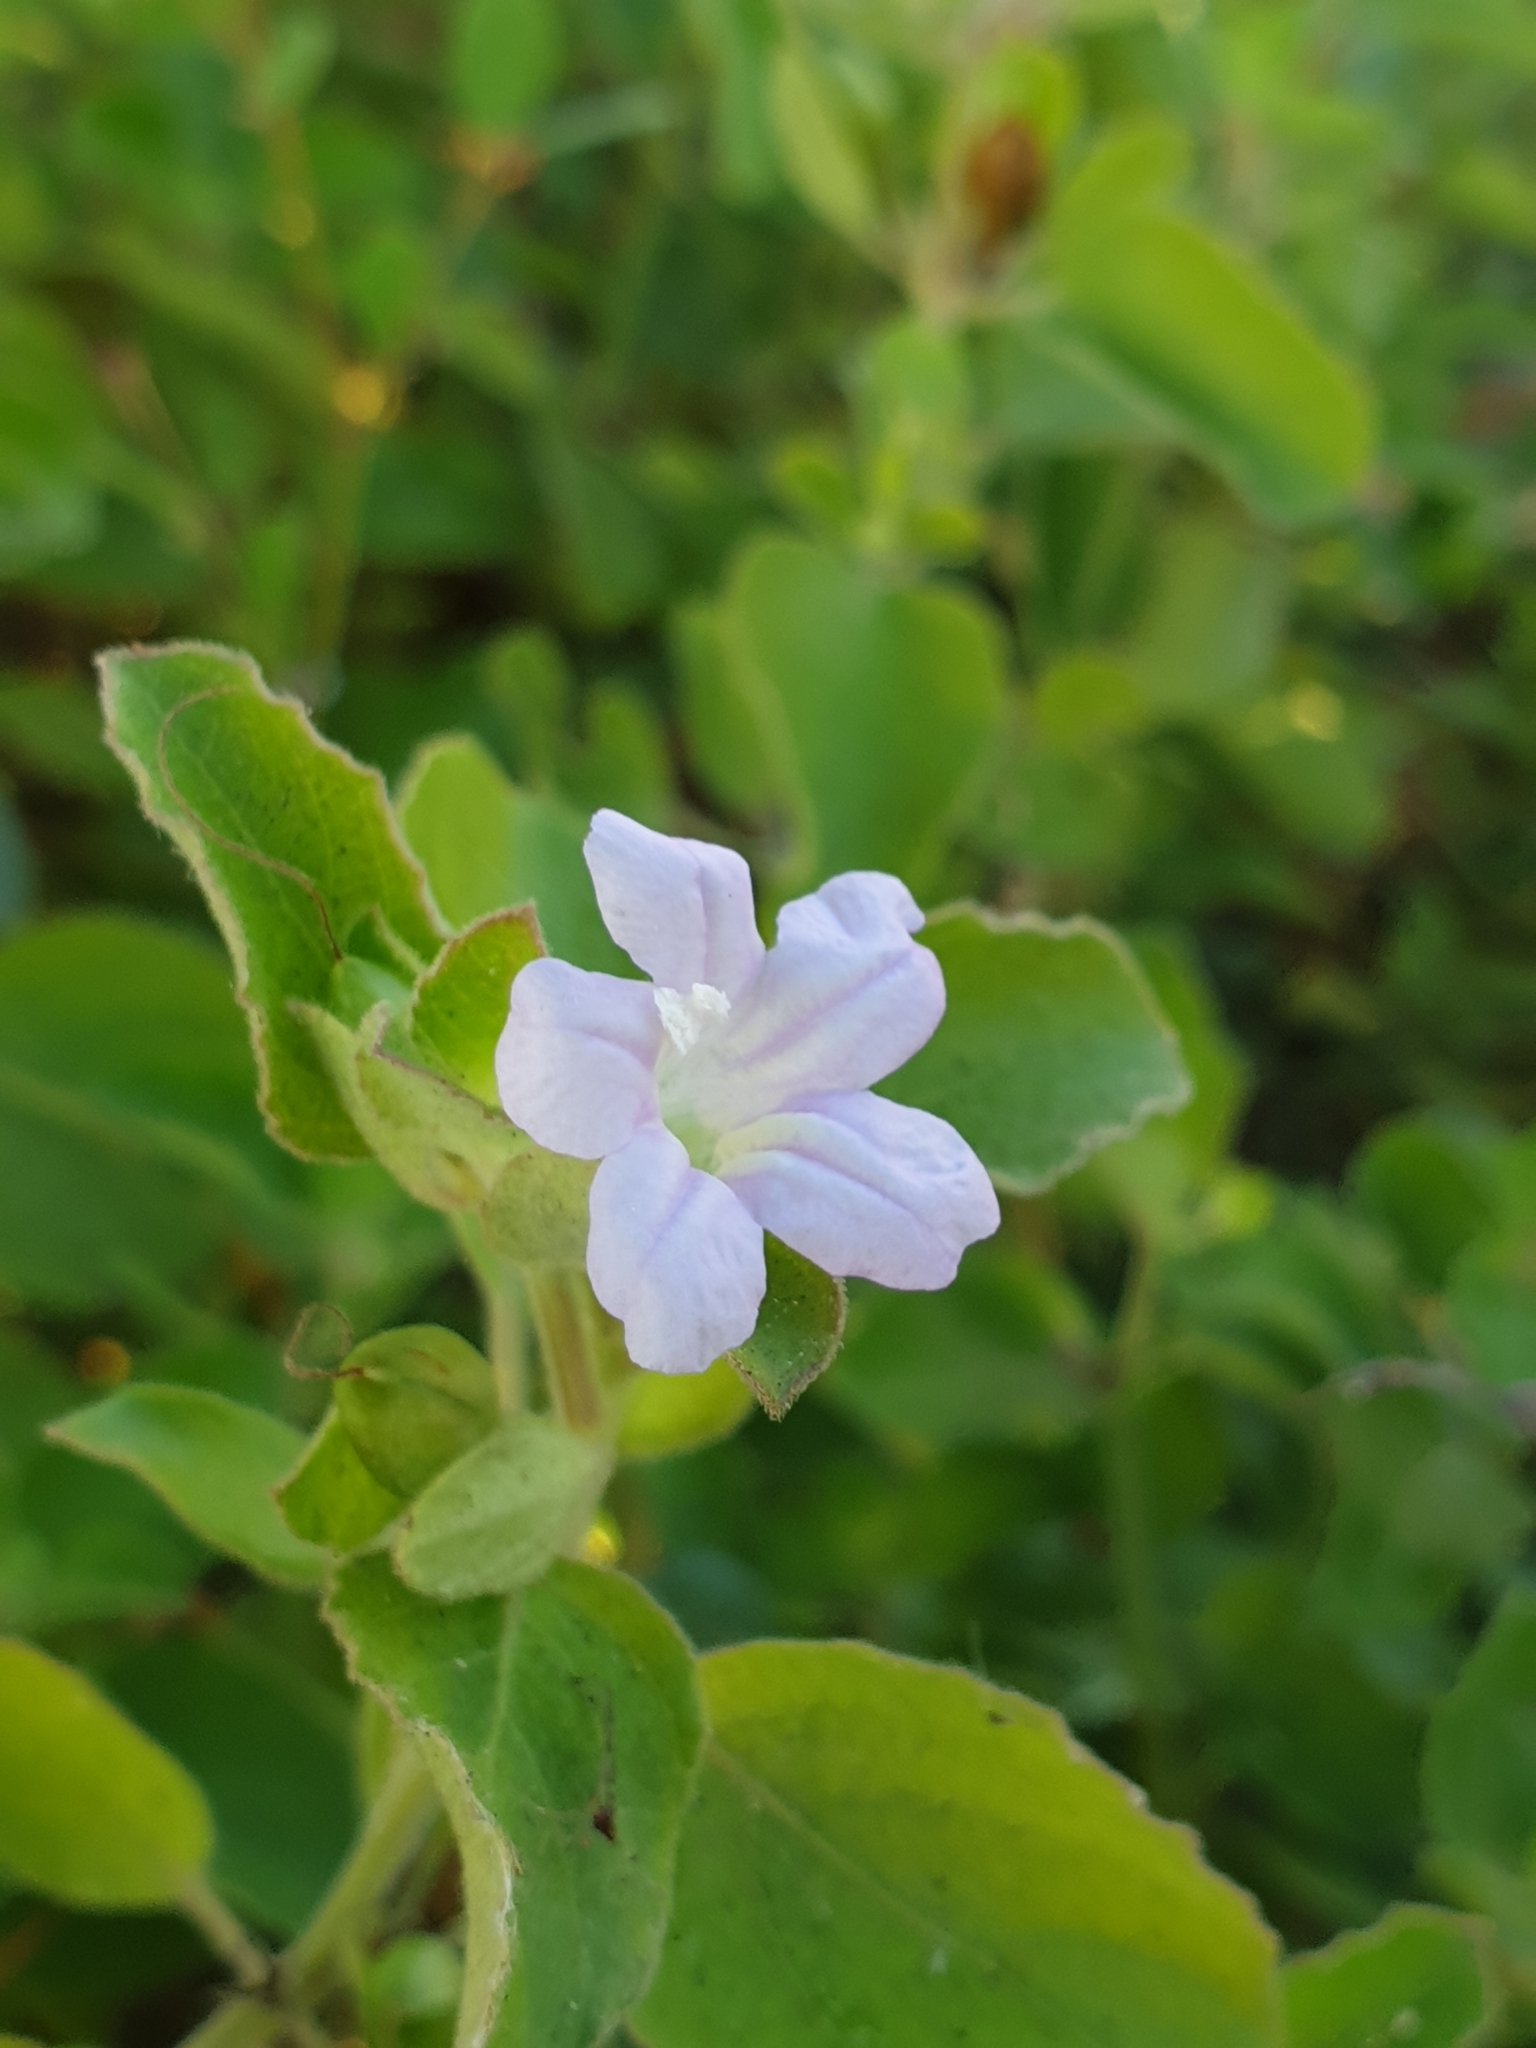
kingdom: Plantae
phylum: Tracheophyta
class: Magnoliopsida
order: Lamiales
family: Acanthaceae
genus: Ruellia
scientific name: Ruellia patula
